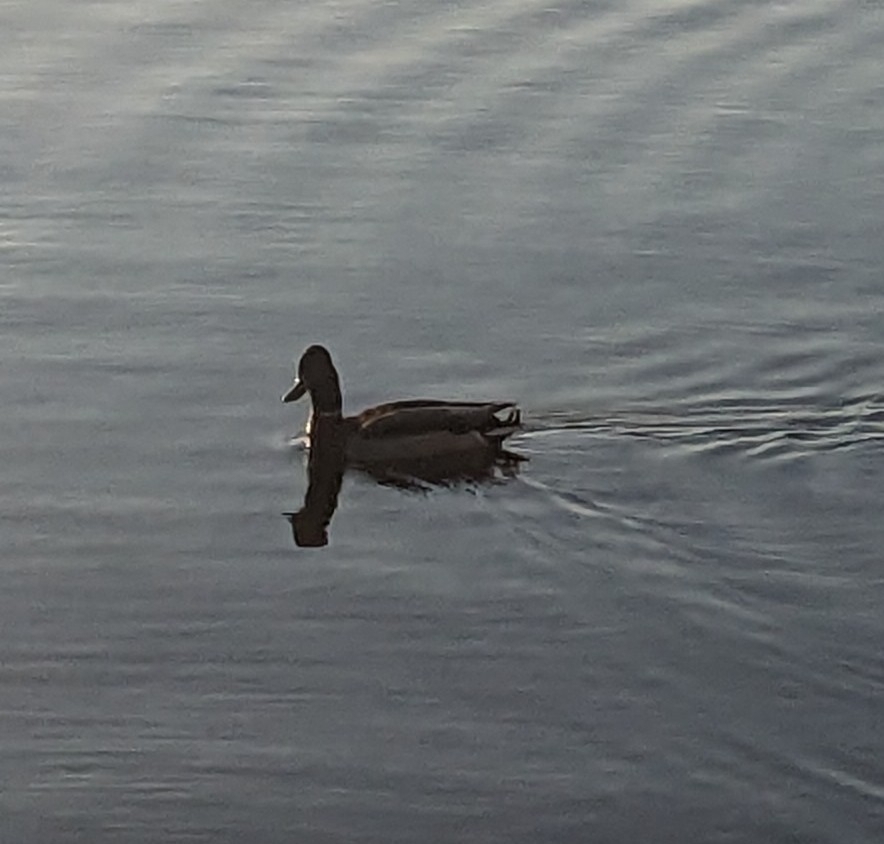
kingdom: Animalia
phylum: Chordata
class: Aves
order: Anseriformes
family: Anatidae
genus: Anas
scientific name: Anas platyrhynchos
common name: Mallard
